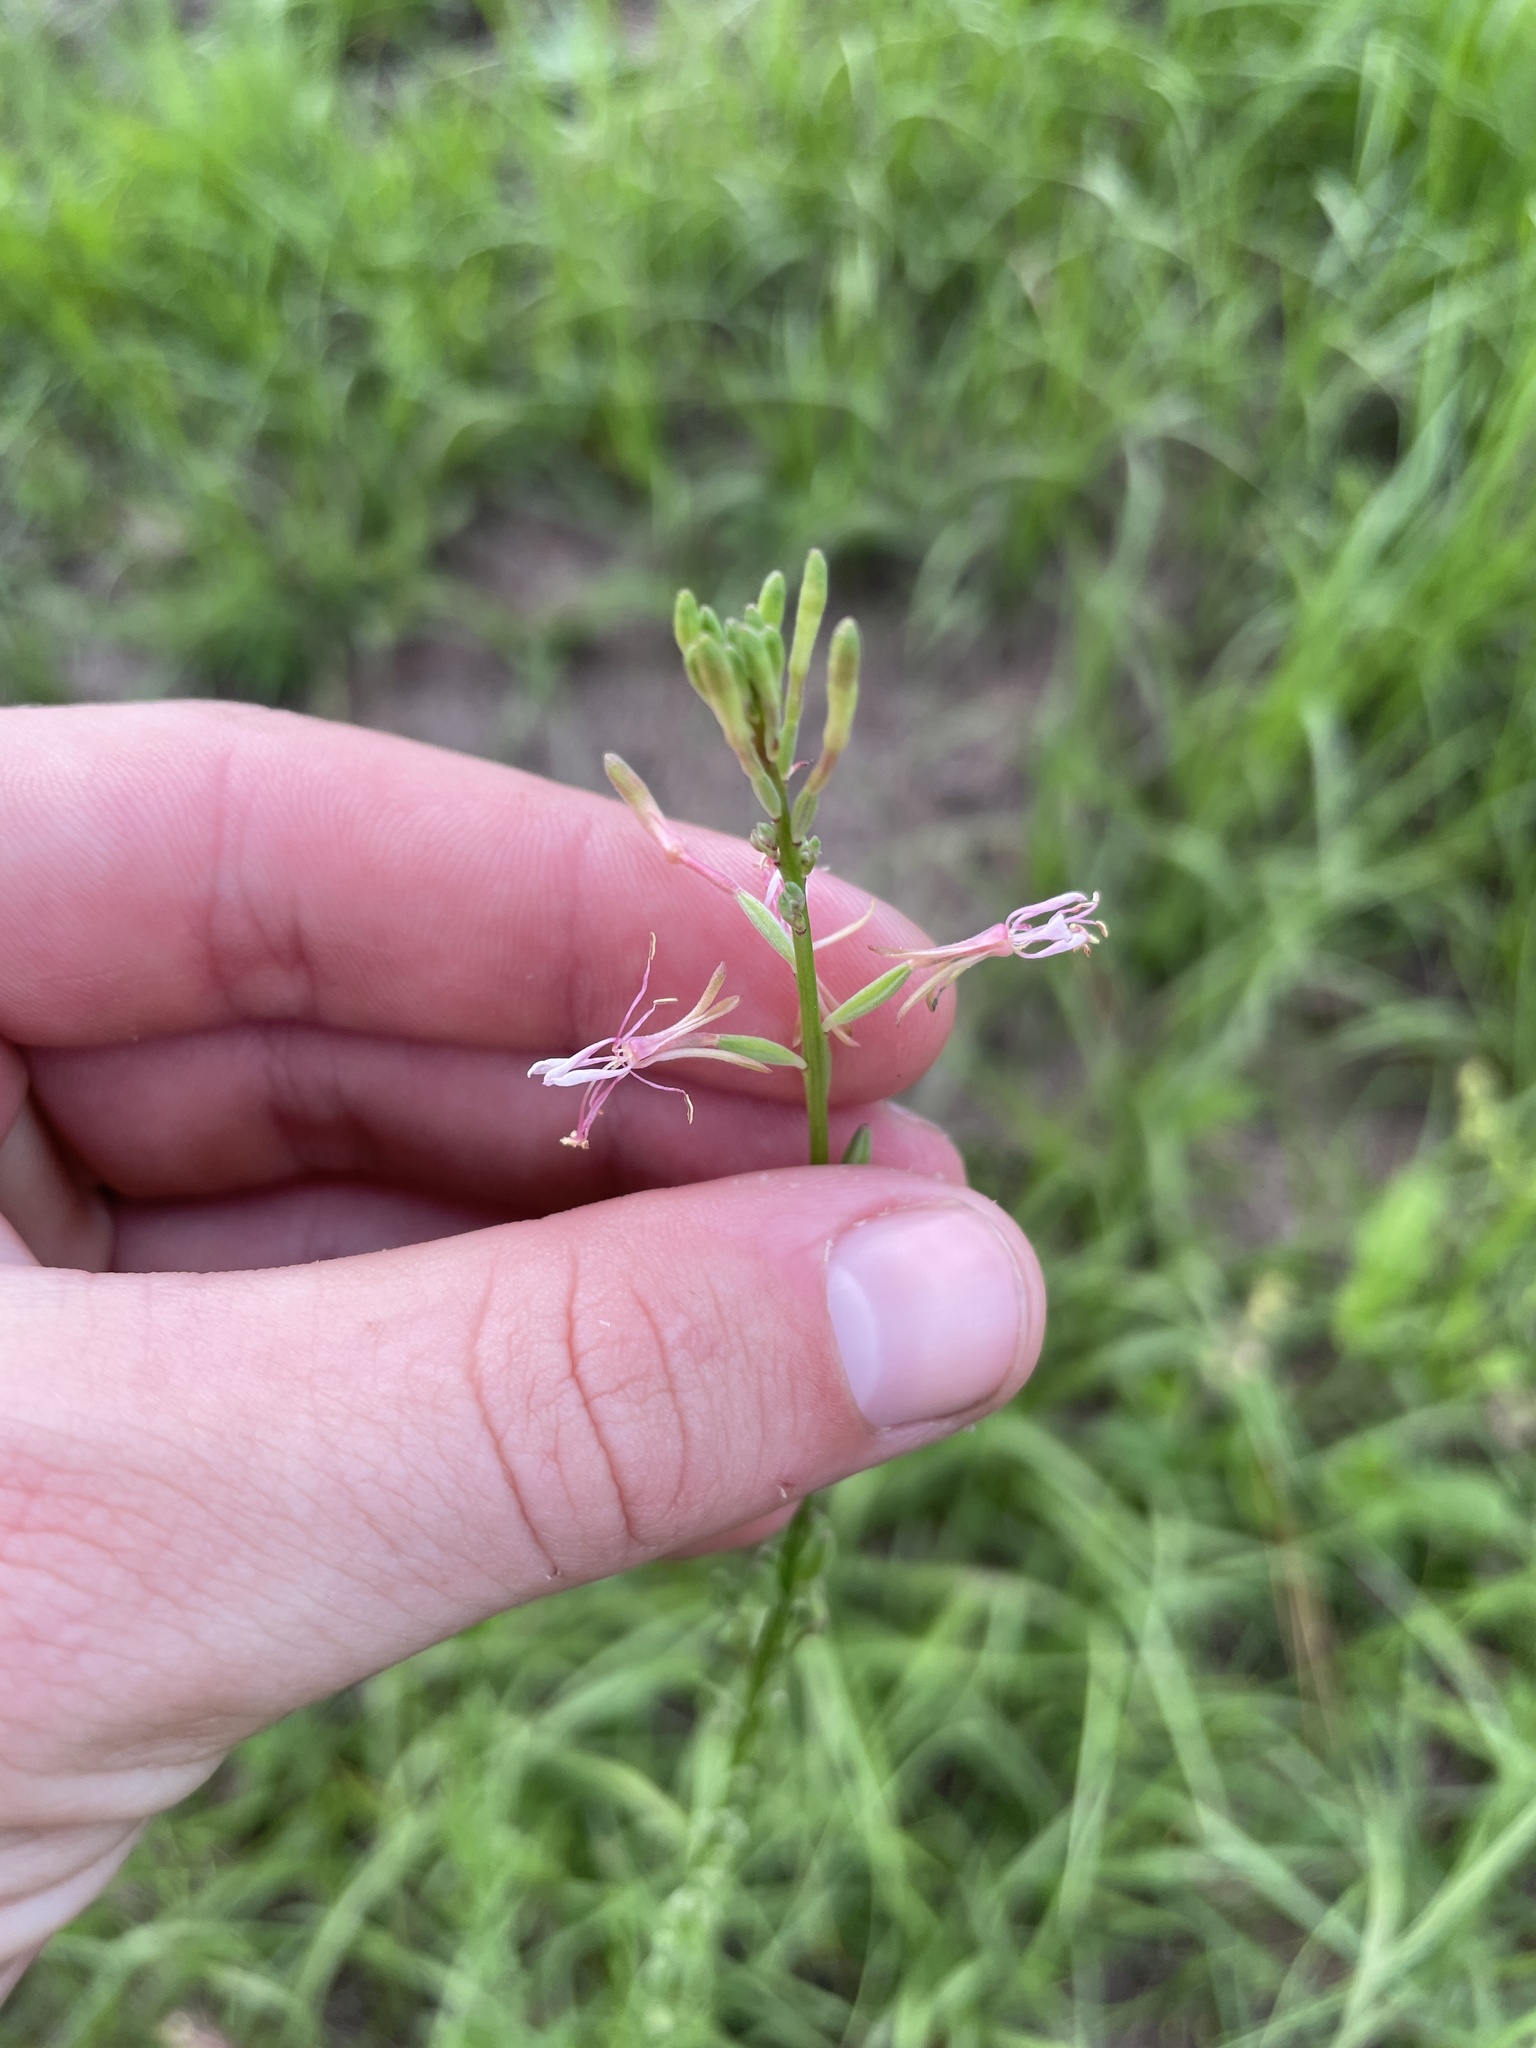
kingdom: Plantae
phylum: Tracheophyta
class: Magnoliopsida
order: Myrtales
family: Onagraceae
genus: Oenothera
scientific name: Oenothera simulans
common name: Southern beeblossom
